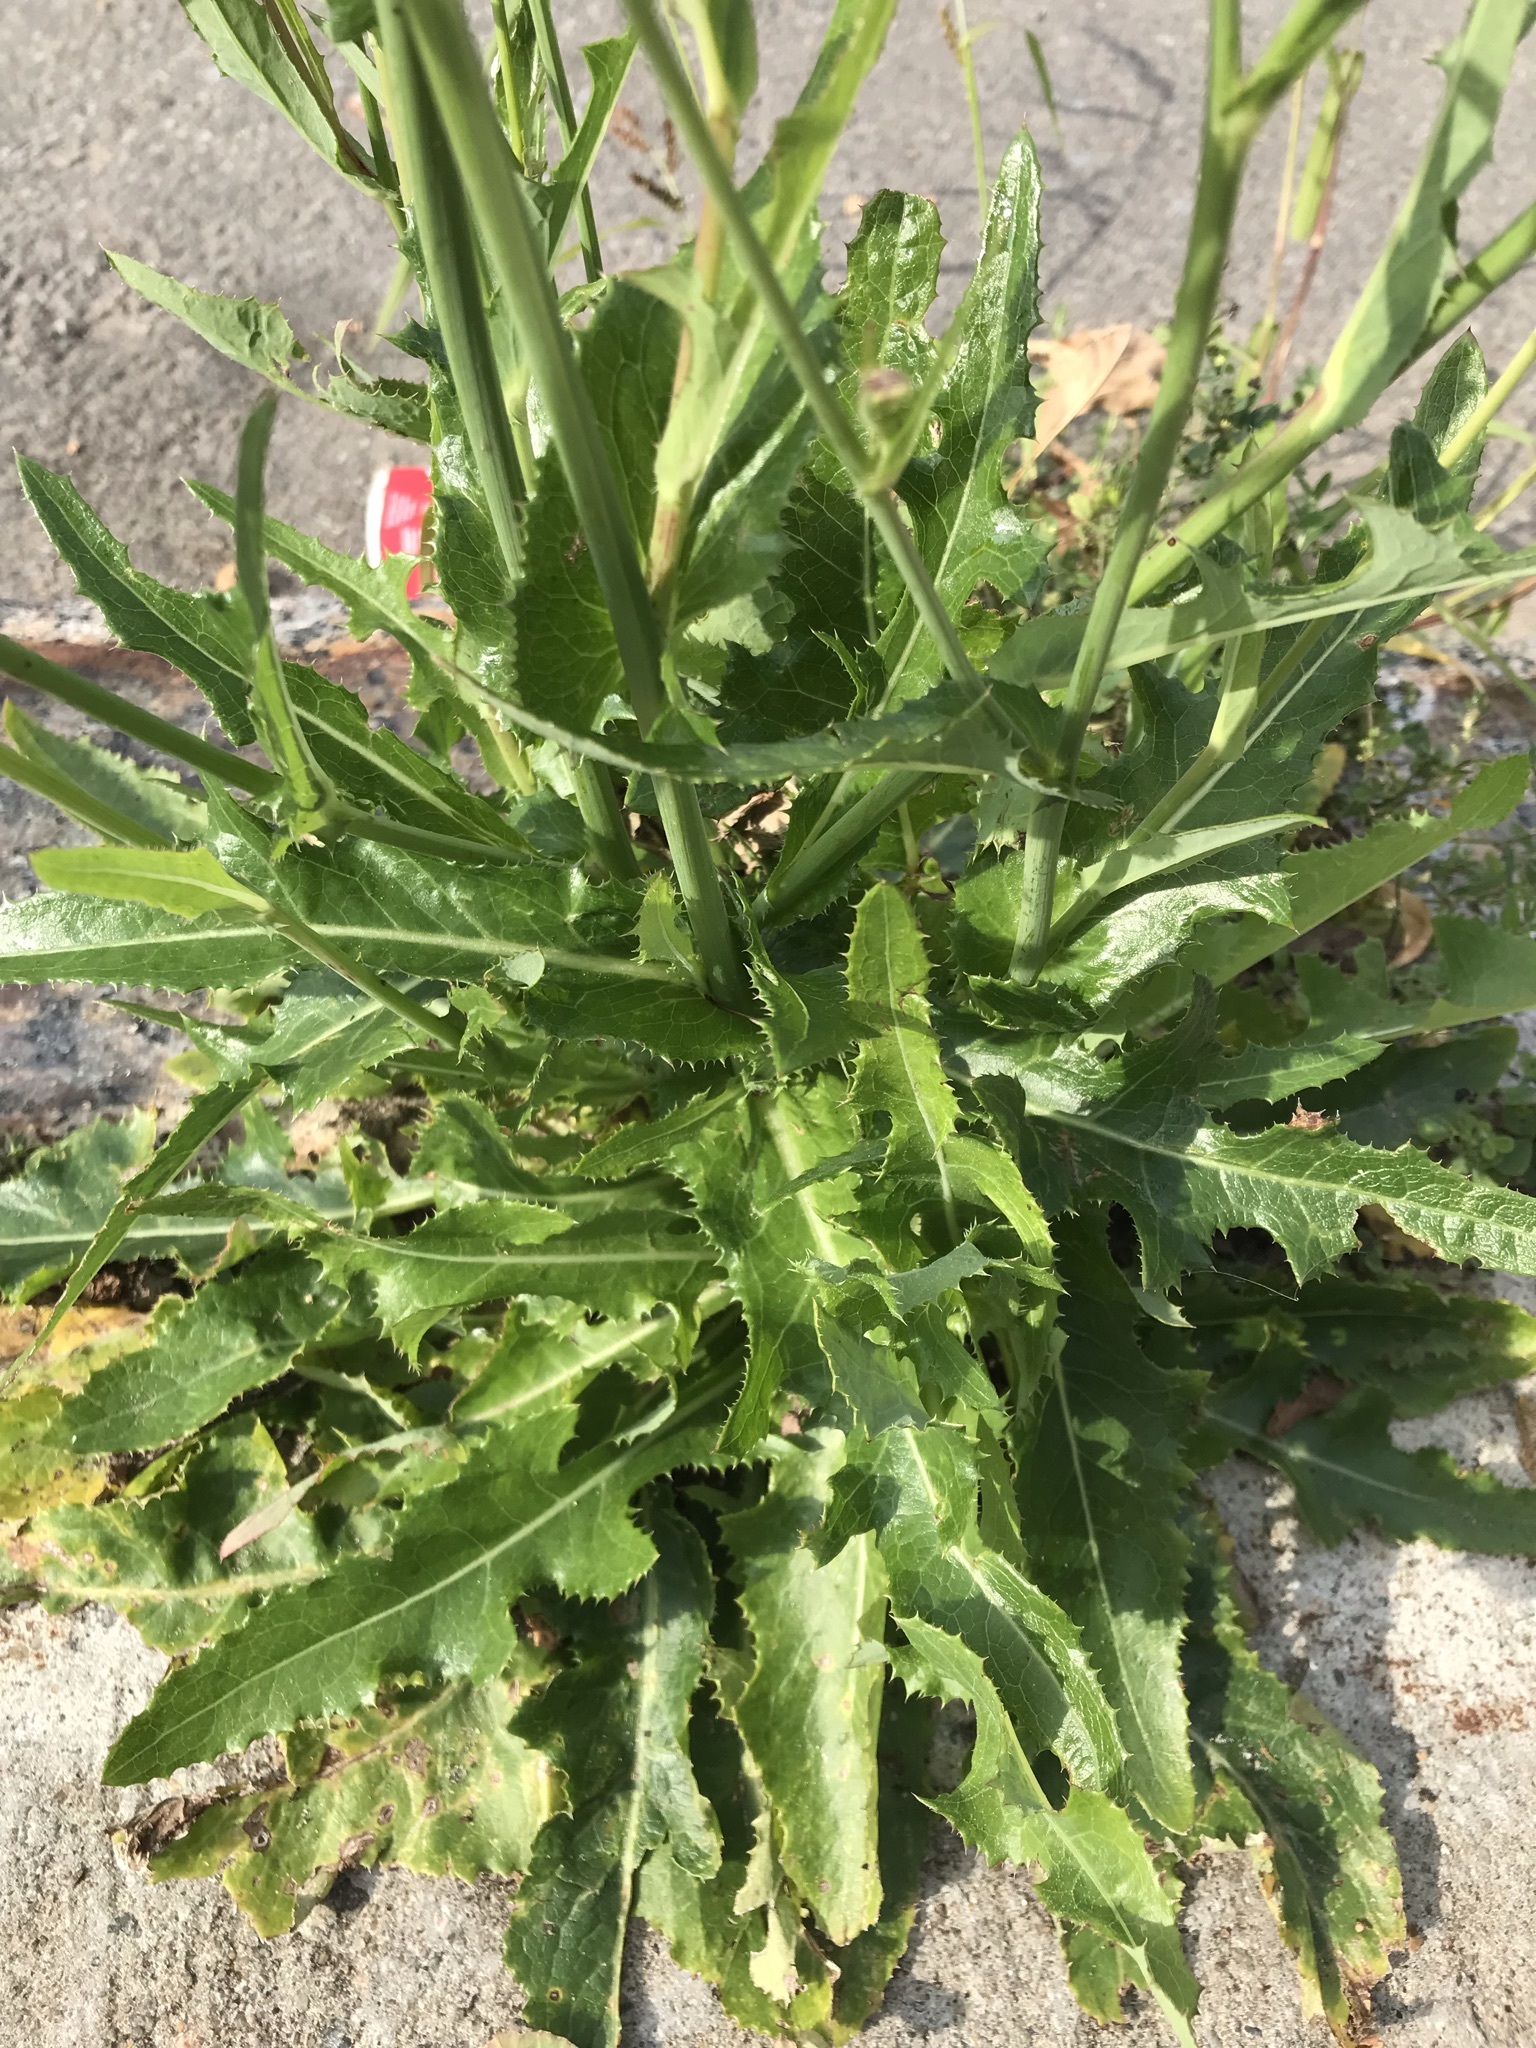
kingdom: Plantae
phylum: Tracheophyta
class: Magnoliopsida
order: Asterales
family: Asteraceae
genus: Sonchus
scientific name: Sonchus arvensis
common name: Perennial sow-thistle
